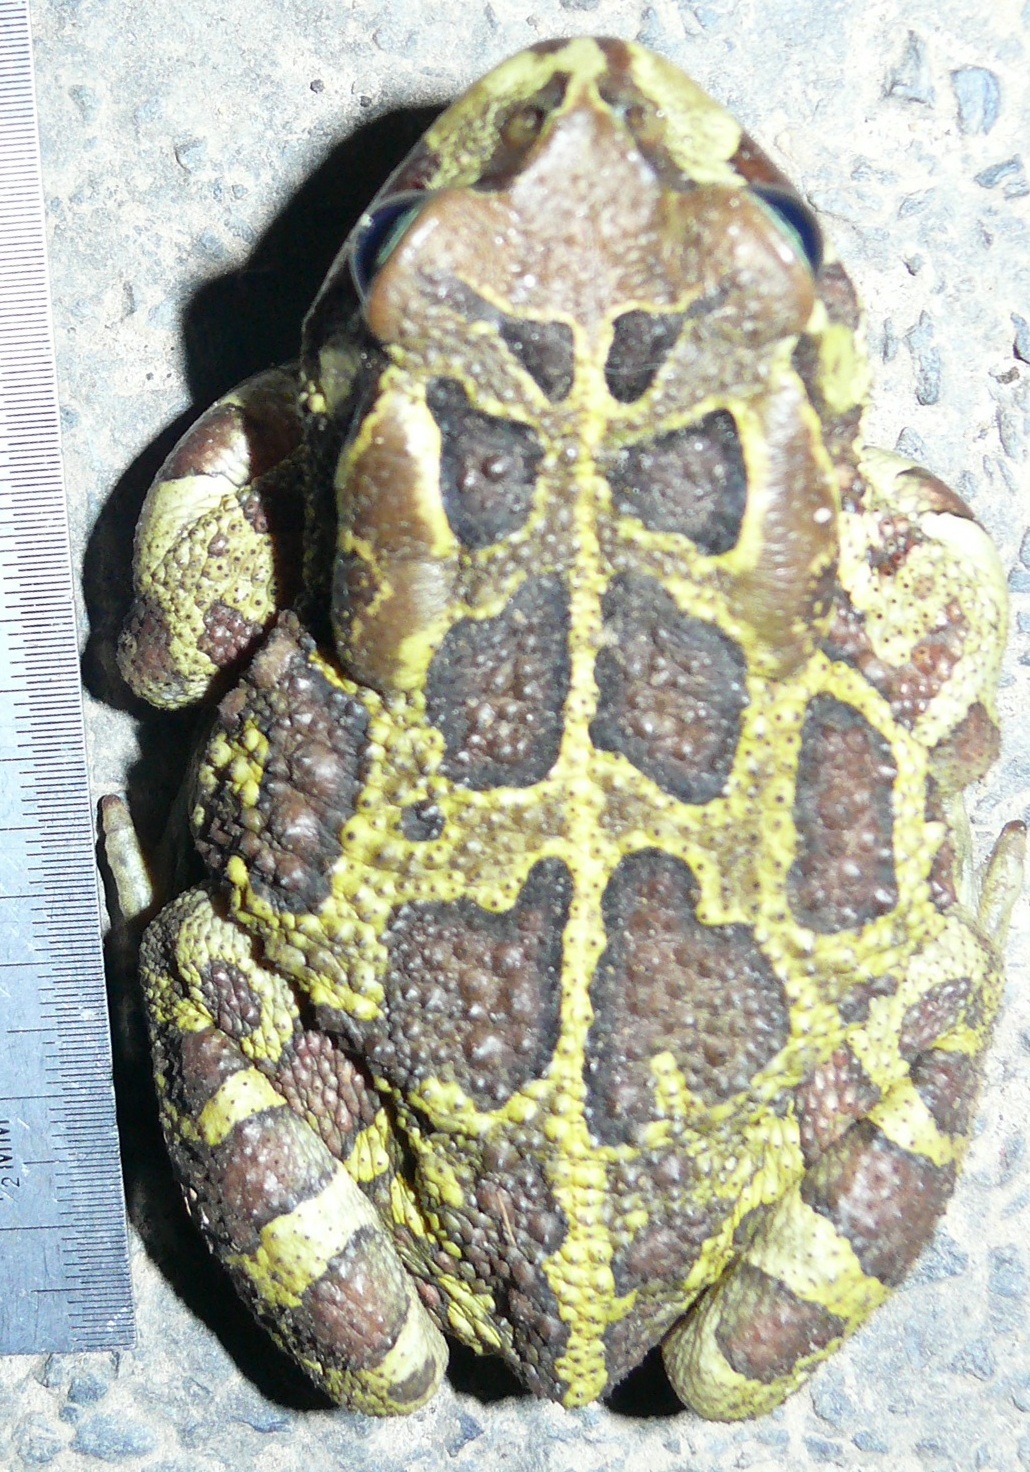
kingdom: Animalia
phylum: Chordata
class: Amphibia
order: Anura
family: Bufonidae
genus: Sclerophrys
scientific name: Sclerophrys pantherina
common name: Panther toad
